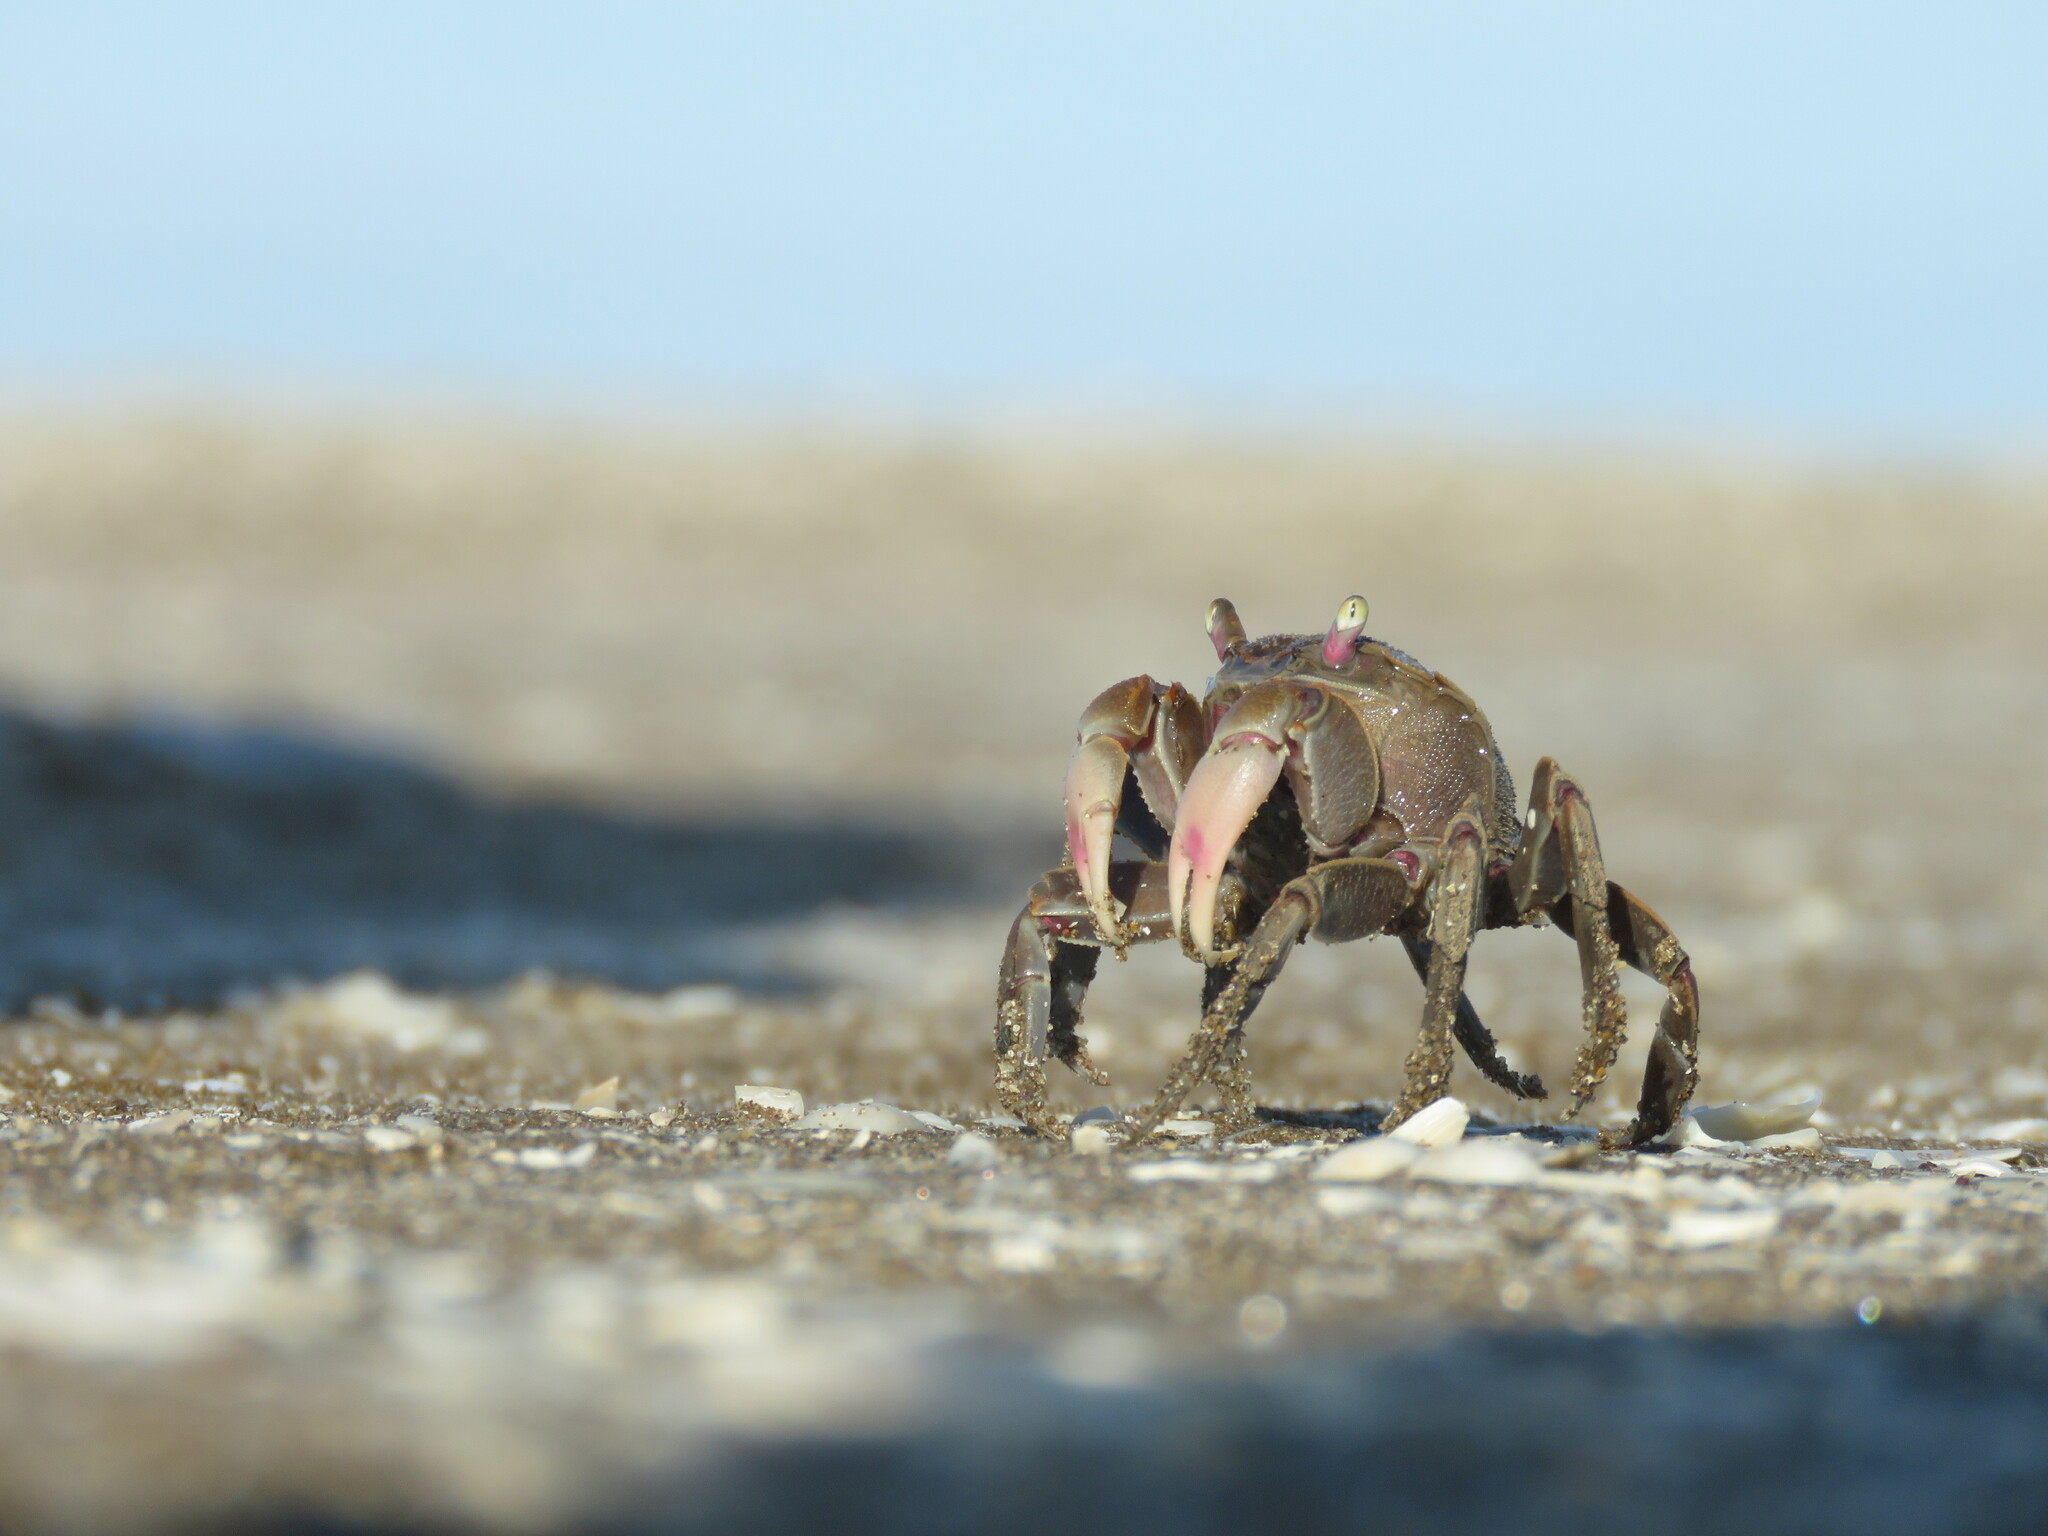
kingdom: Animalia
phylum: Arthropoda
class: Malacostraca
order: Decapoda
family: Varunidae
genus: Neohelice
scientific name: Neohelice granulata
